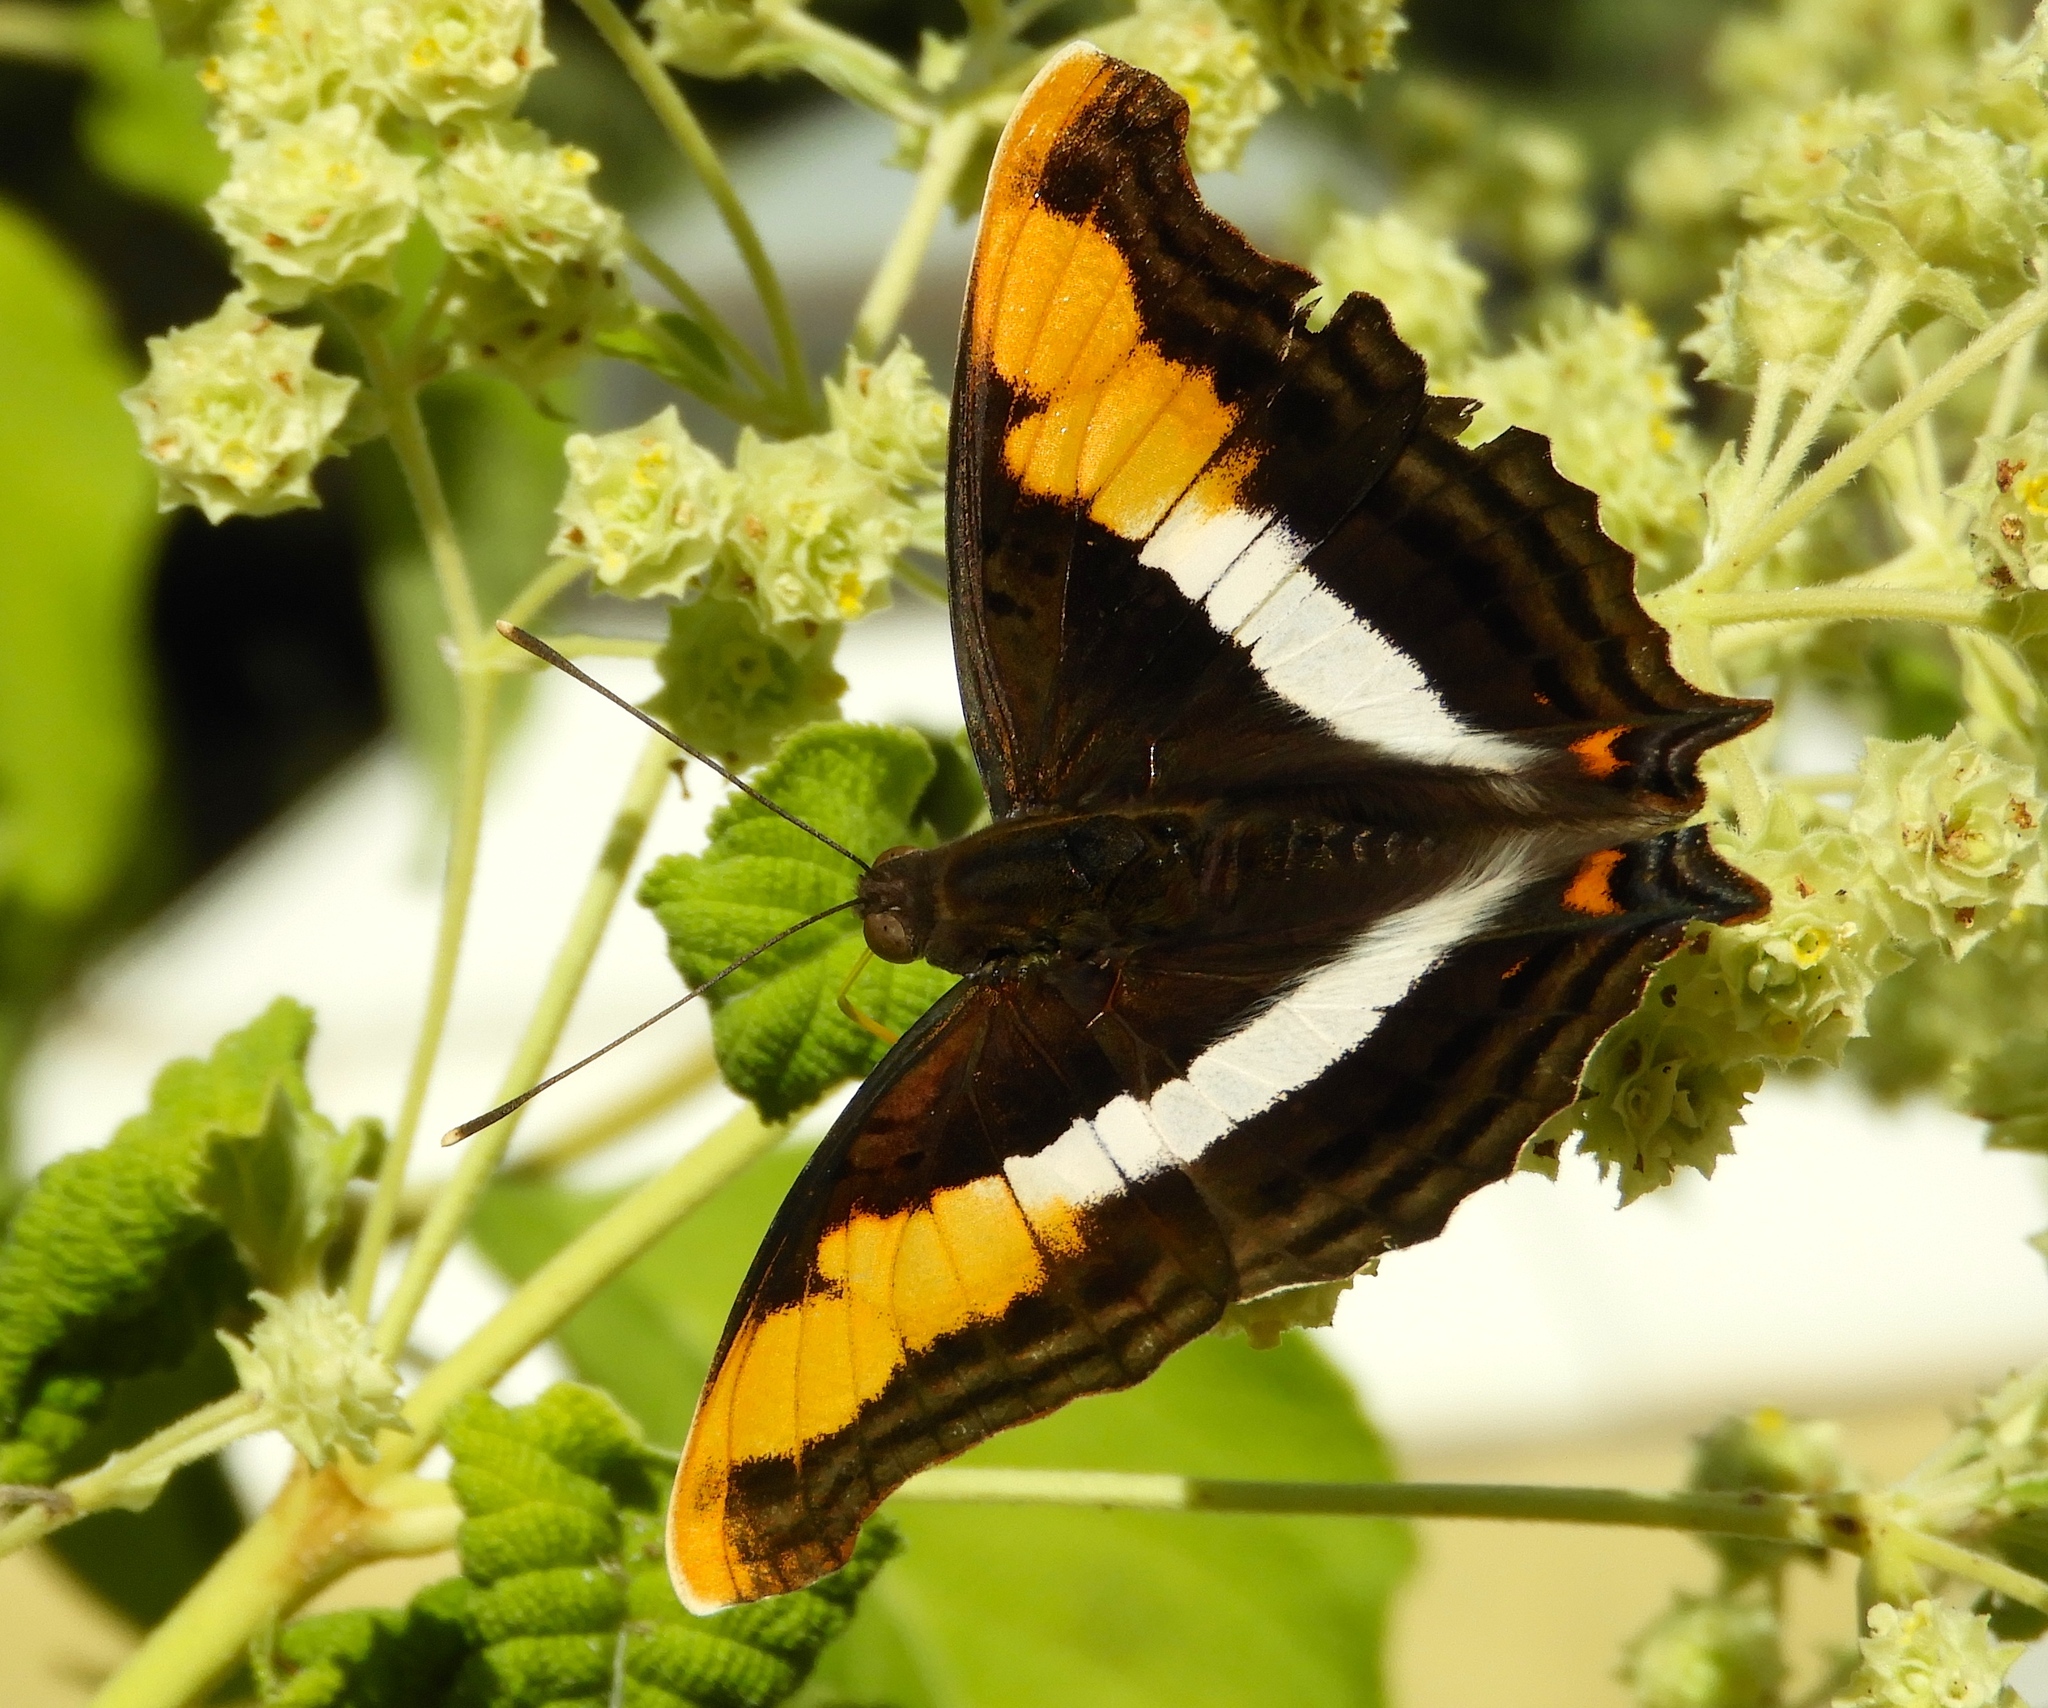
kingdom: Animalia
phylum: Arthropoda
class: Insecta
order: Lepidoptera
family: Nymphalidae
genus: Doxocopa
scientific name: Doxocopa laure
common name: Silver emperor
